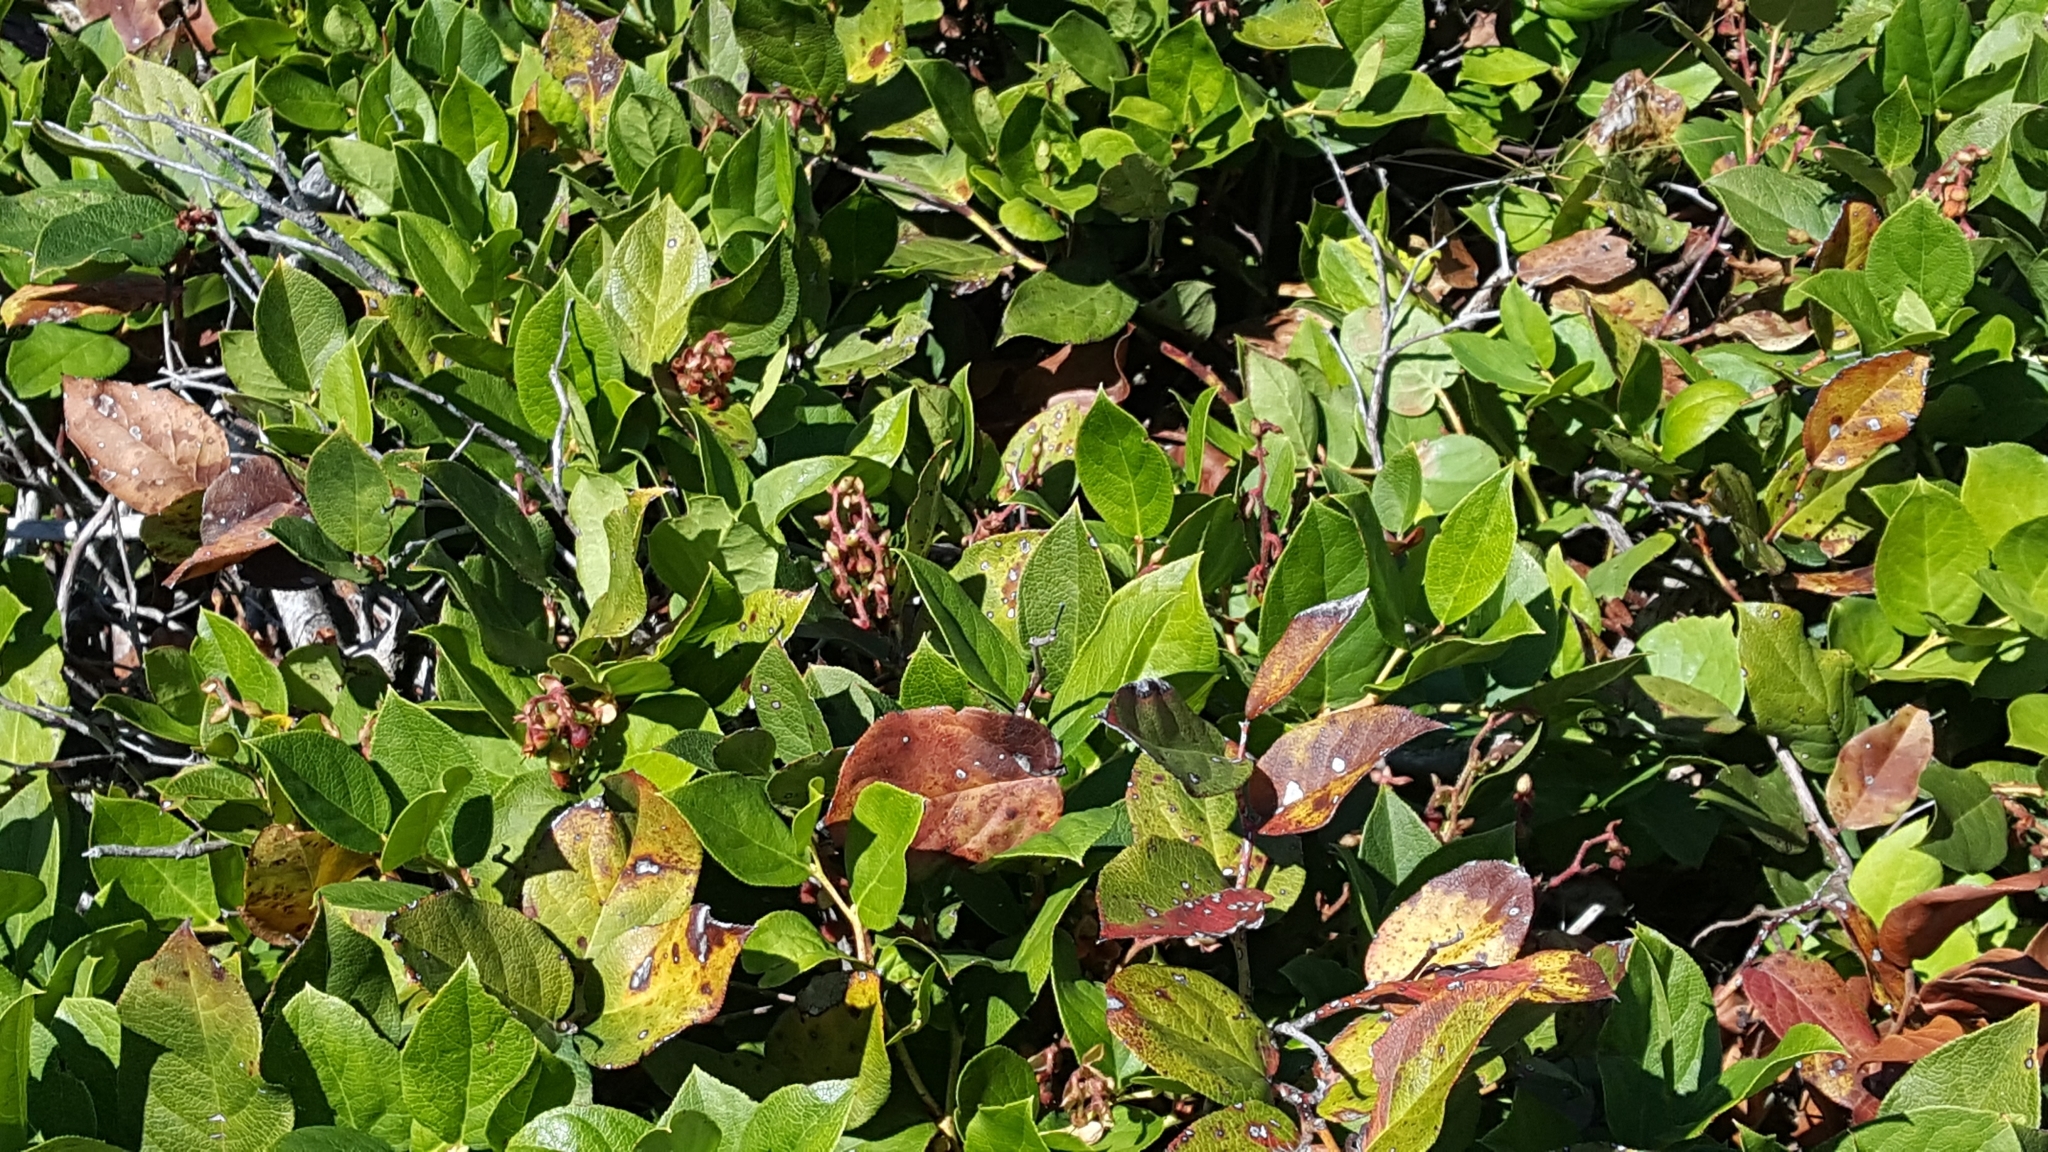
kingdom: Plantae
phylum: Tracheophyta
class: Magnoliopsida
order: Ericales
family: Ericaceae
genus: Gaultheria
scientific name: Gaultheria shallon
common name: Shallon
